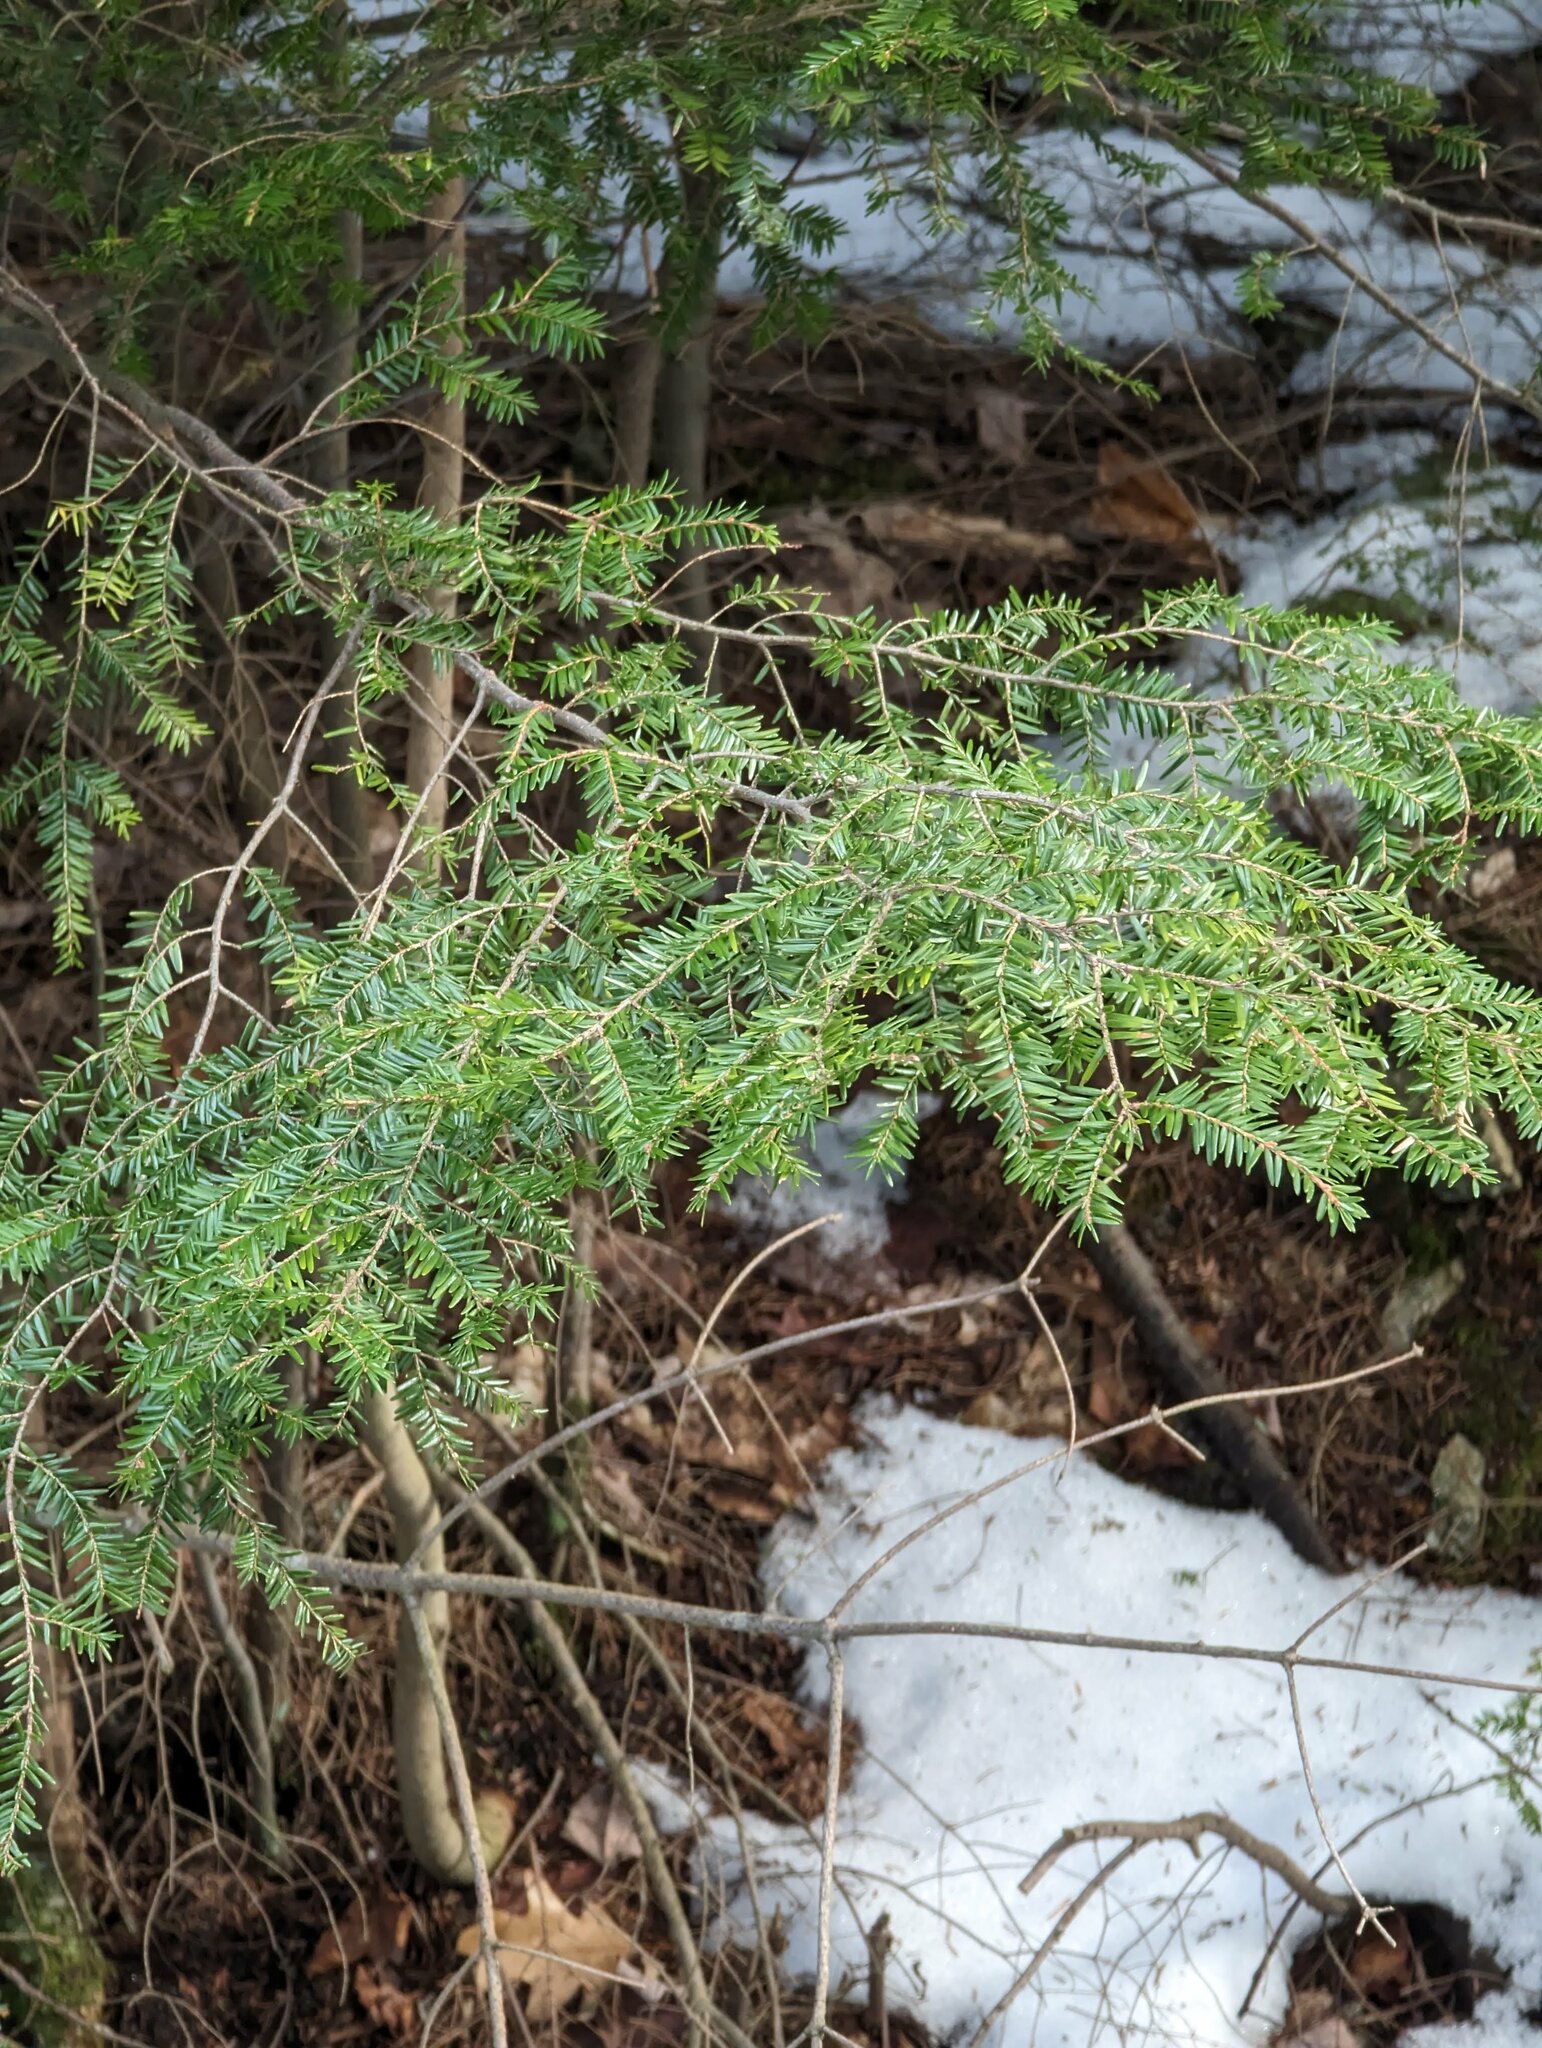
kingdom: Plantae
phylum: Tracheophyta
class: Pinopsida
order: Pinales
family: Pinaceae
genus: Tsuga
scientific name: Tsuga canadensis
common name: Eastern hemlock
